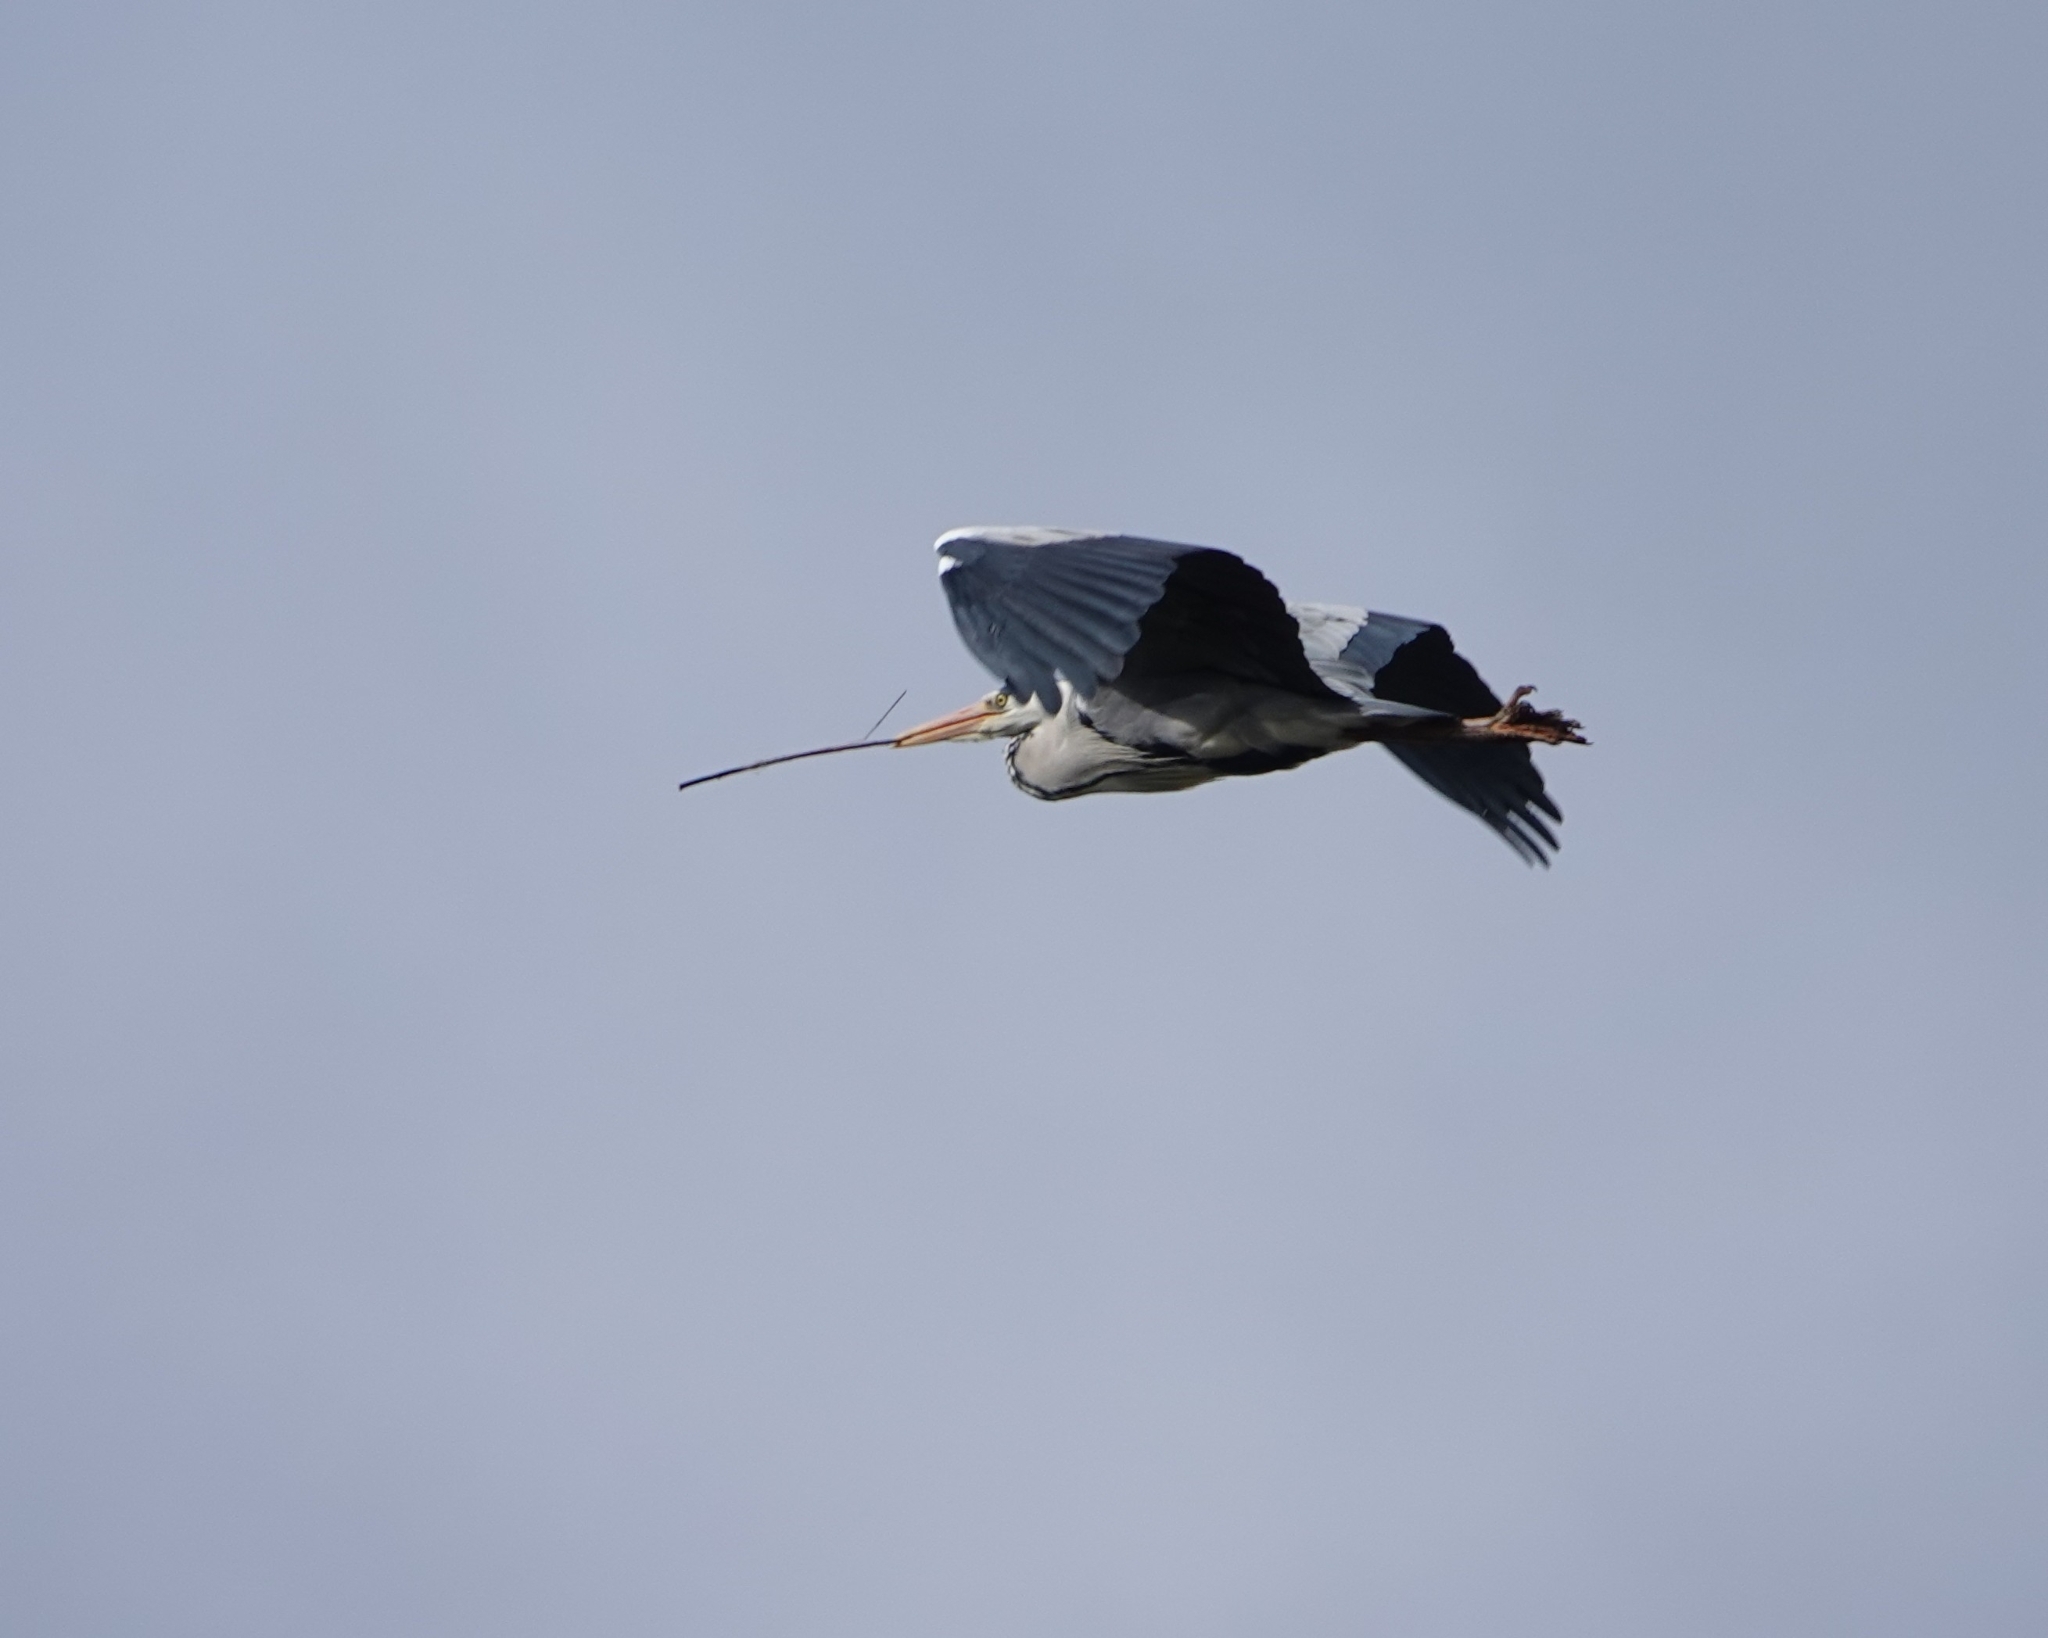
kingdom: Animalia
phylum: Chordata
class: Aves
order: Pelecaniformes
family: Ardeidae
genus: Ardea
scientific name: Ardea cinerea
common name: Grey heron
